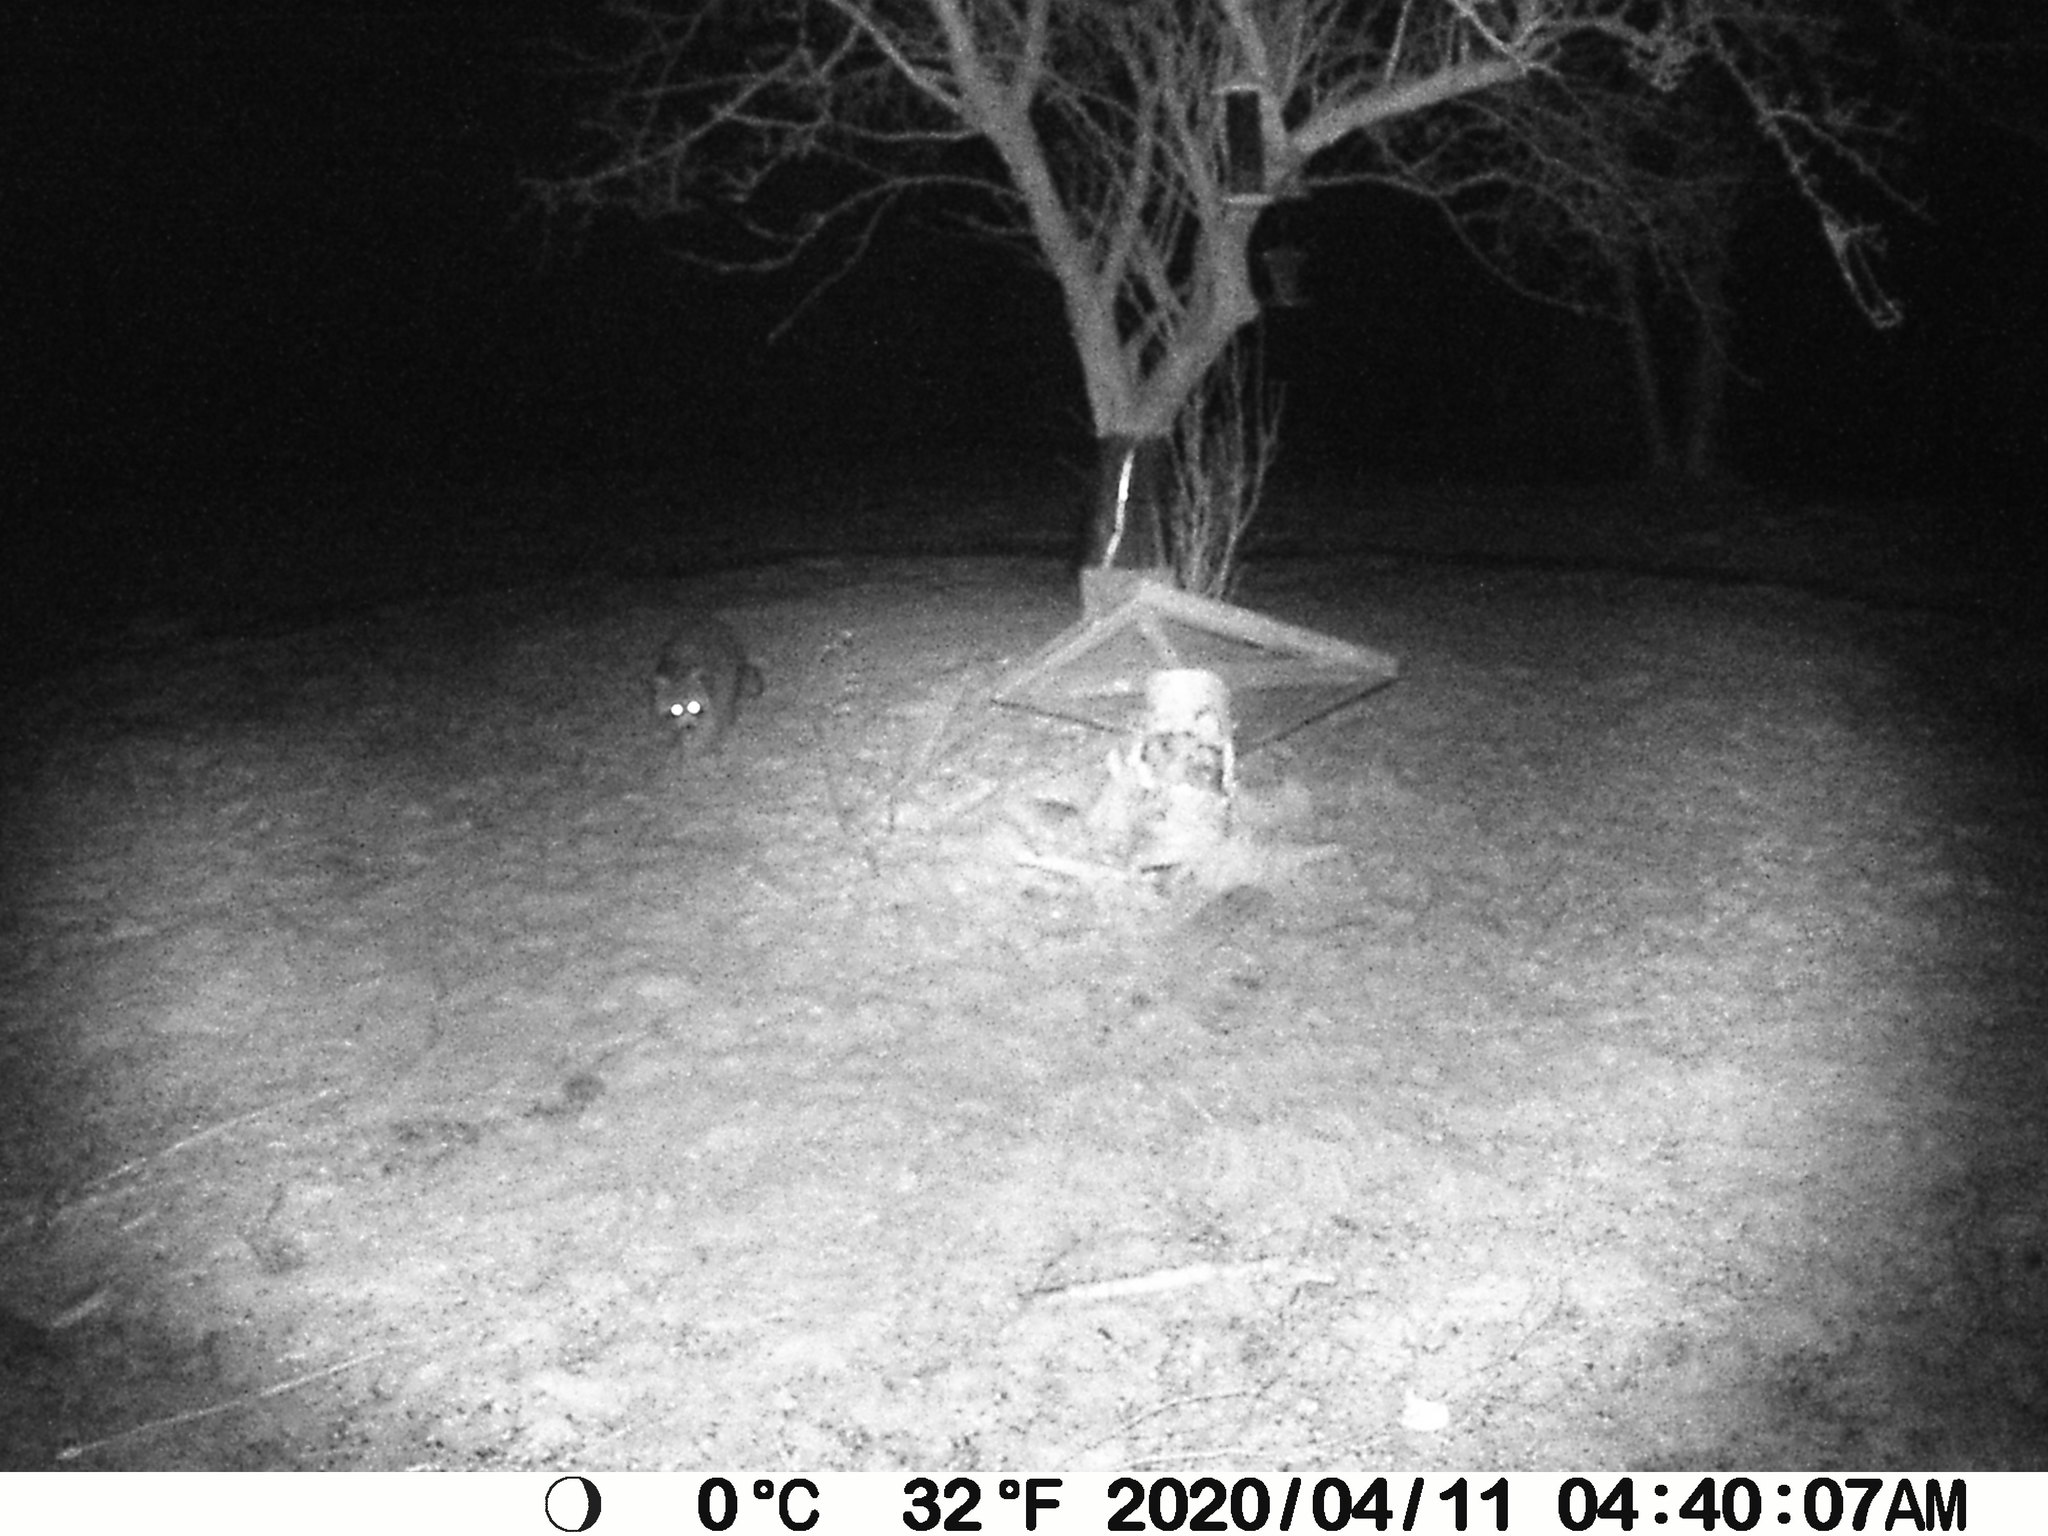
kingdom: Animalia
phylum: Chordata
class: Mammalia
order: Carnivora
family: Procyonidae
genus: Procyon
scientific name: Procyon lotor
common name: Raccoon
